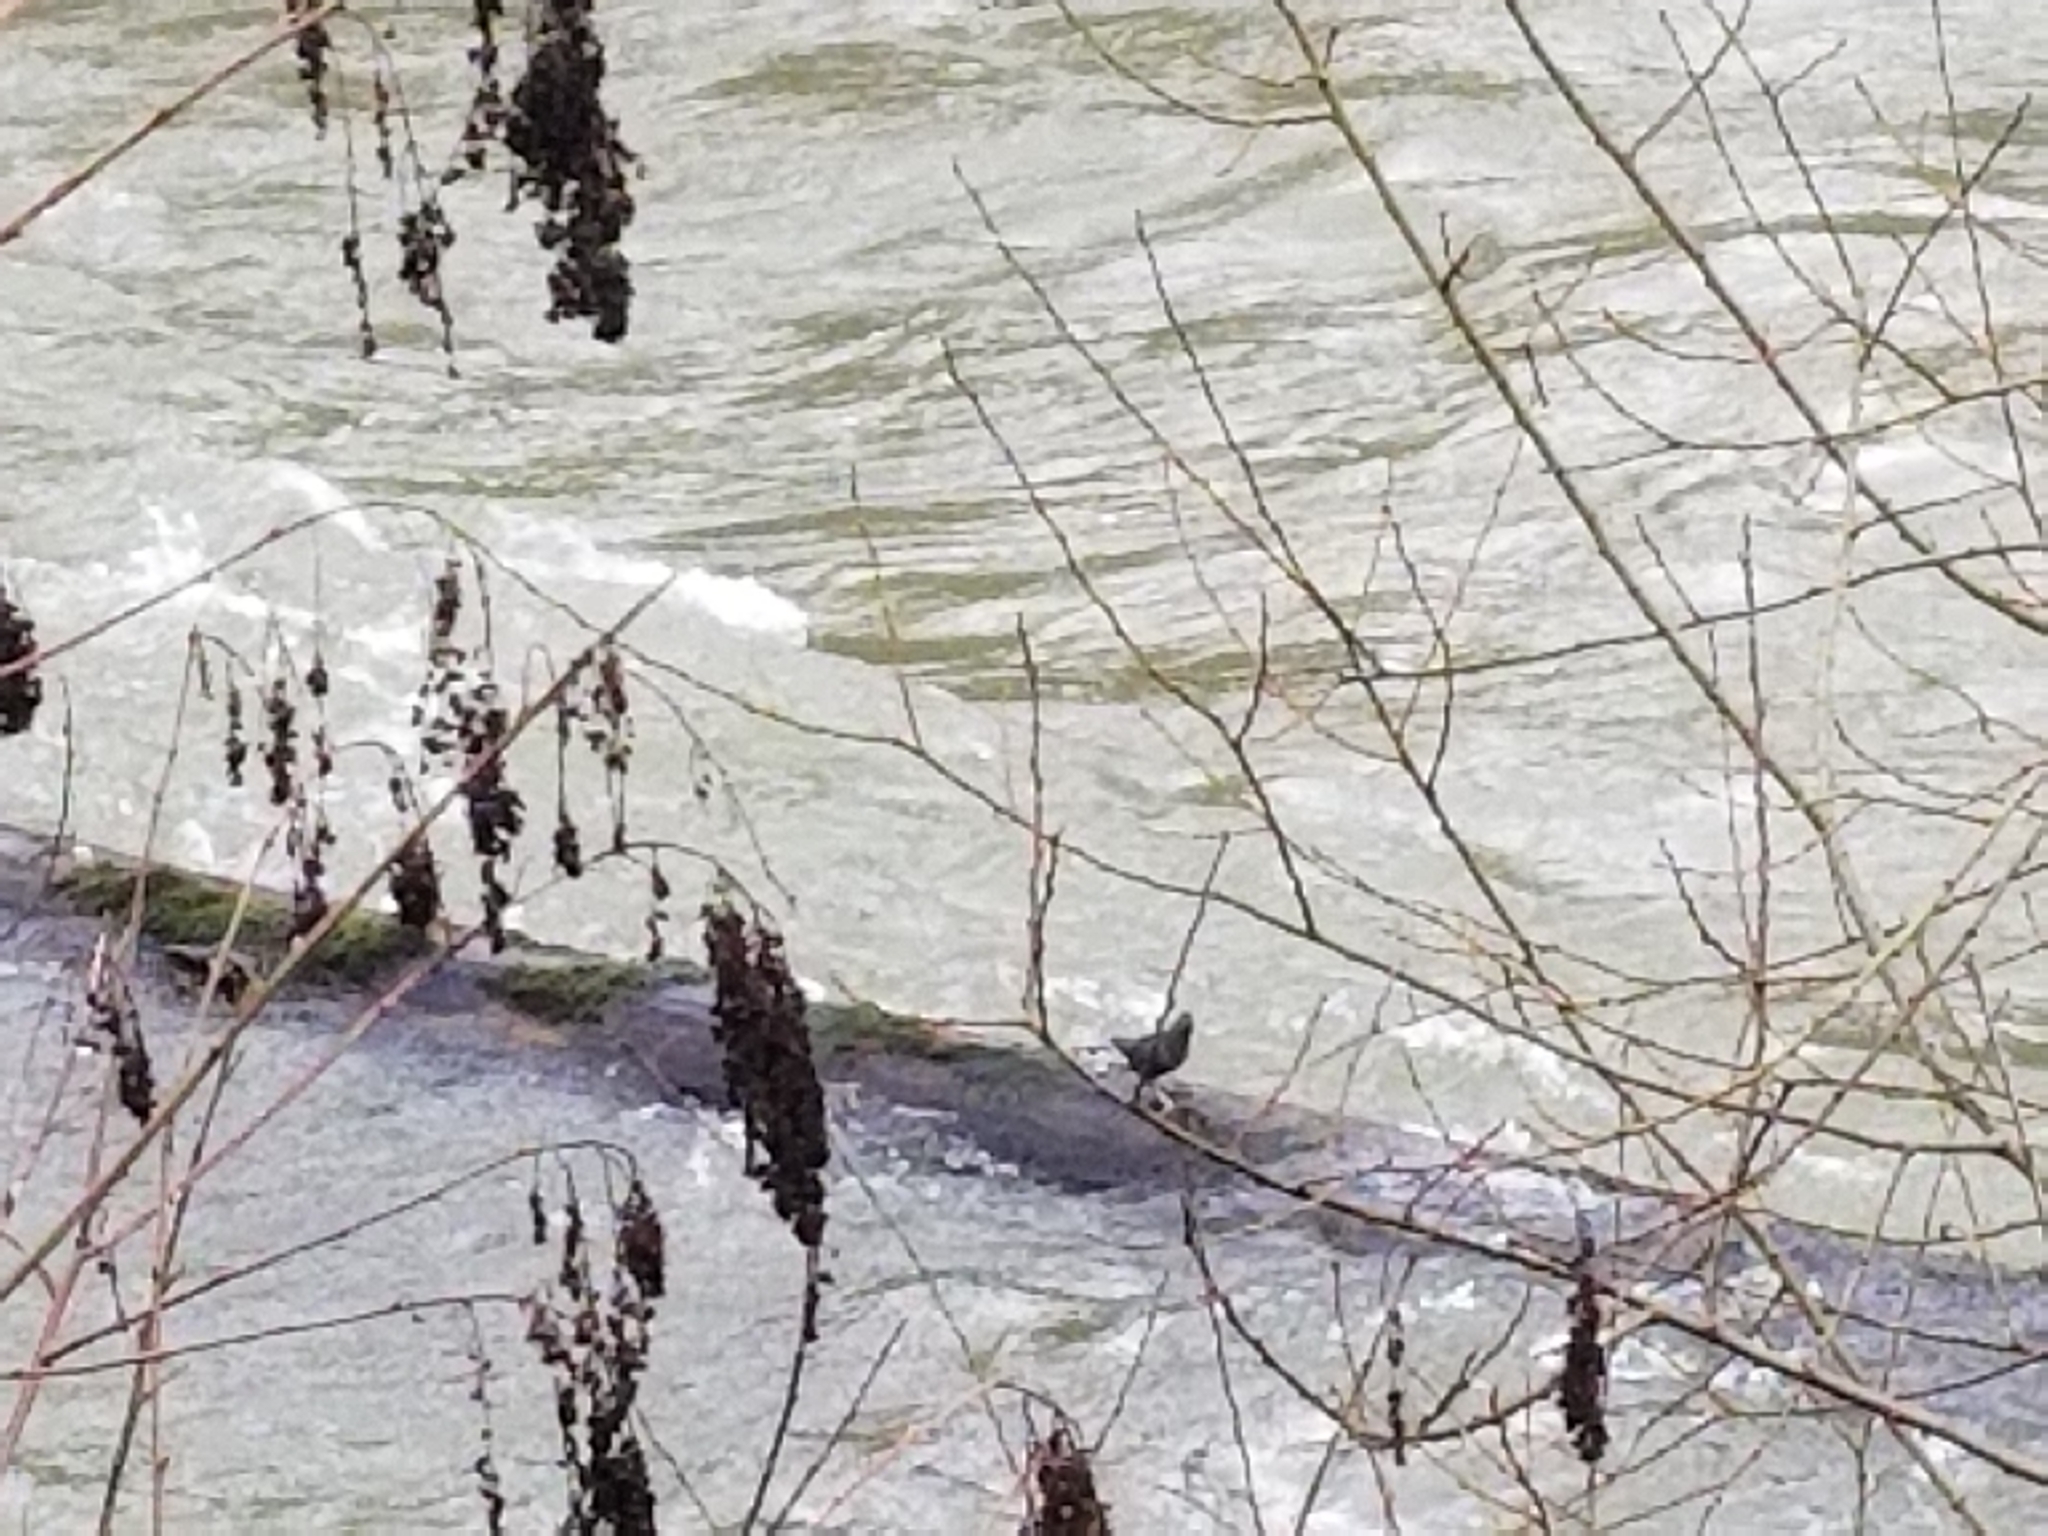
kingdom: Animalia
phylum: Chordata
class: Aves
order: Passeriformes
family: Cinclidae
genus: Cinclus
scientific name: Cinclus mexicanus
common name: American dipper
